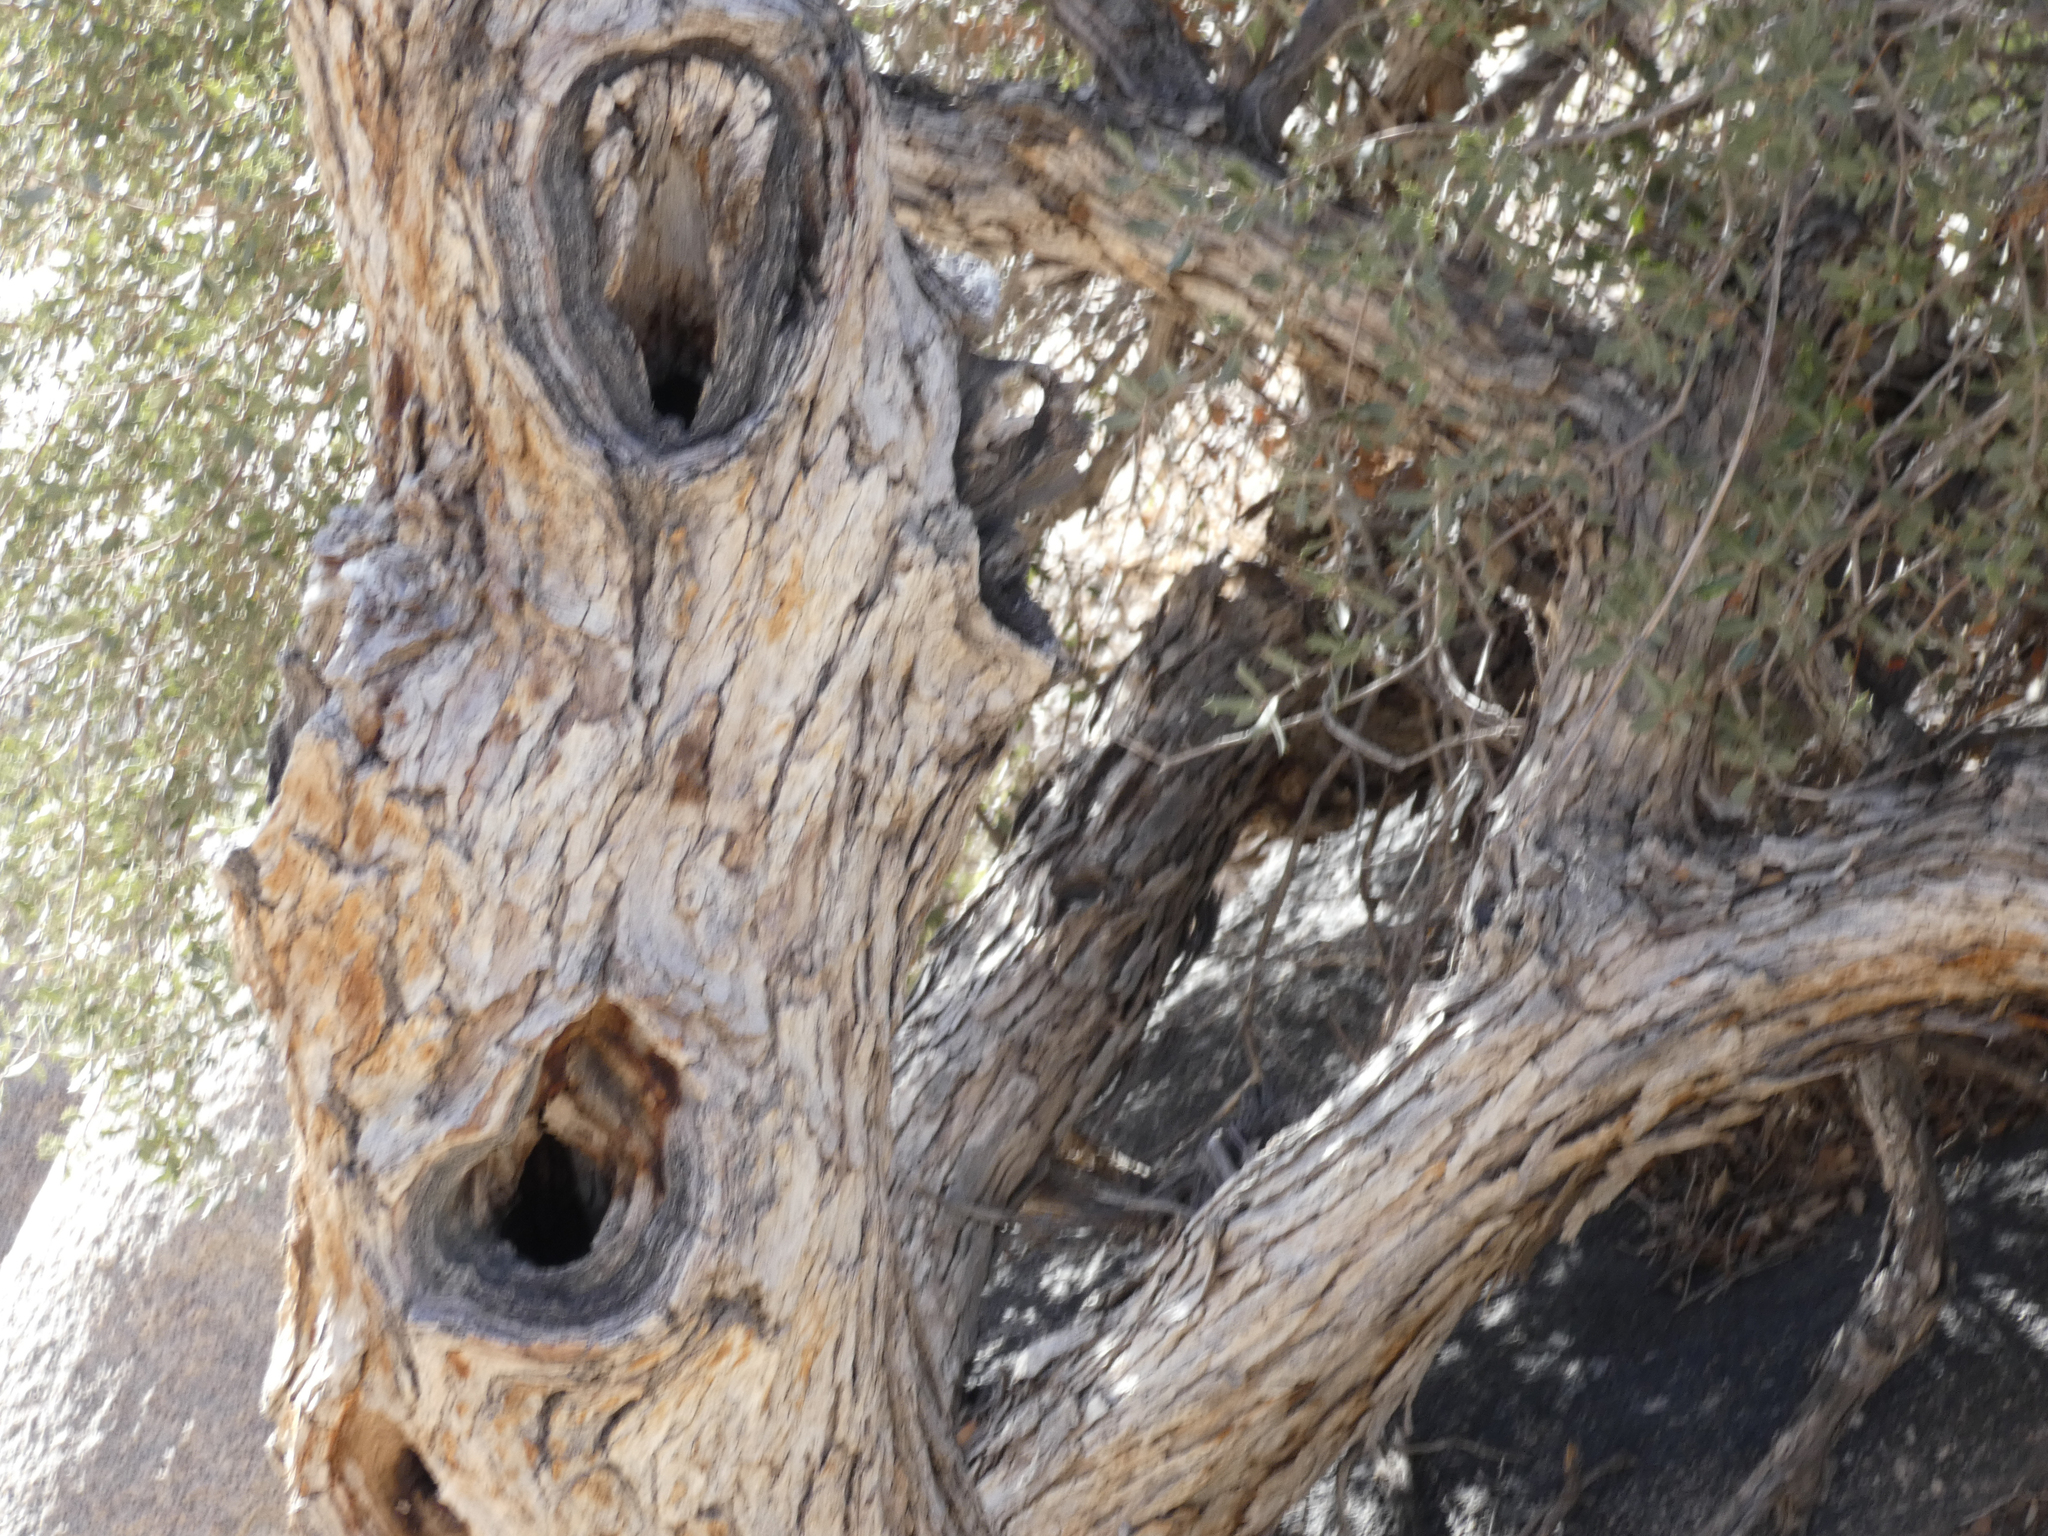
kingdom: Plantae
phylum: Tracheophyta
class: Magnoliopsida
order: Fagales
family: Fagaceae
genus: Quercus
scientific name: Quercus cornelius-mulleri
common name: Muller oak
